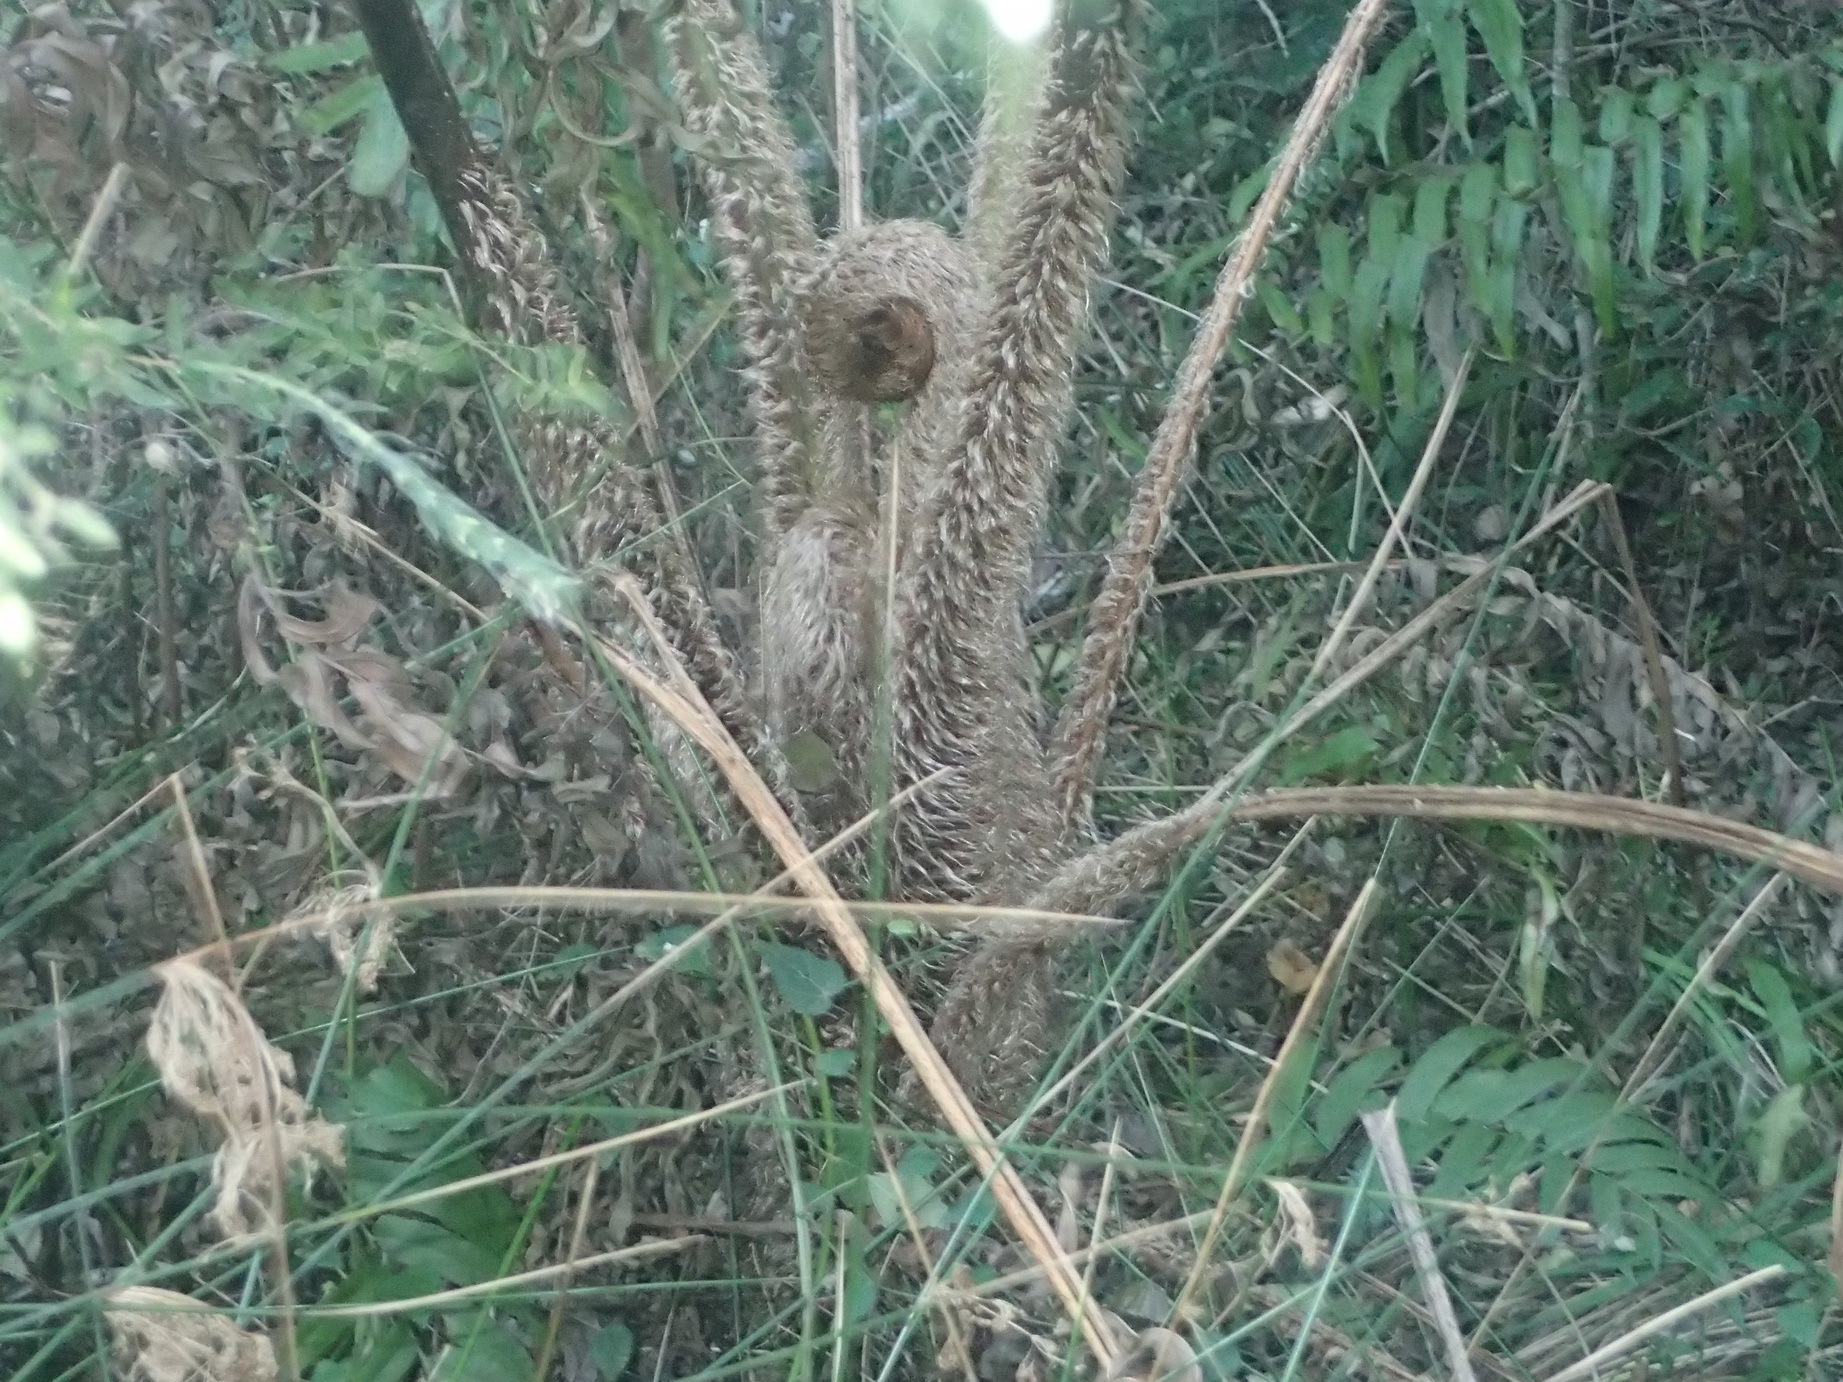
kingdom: Plantae
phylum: Tracheophyta
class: Polypodiopsida
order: Cyatheales
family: Cyatheaceae
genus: Sphaeropteris
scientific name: Sphaeropteris cooperi
